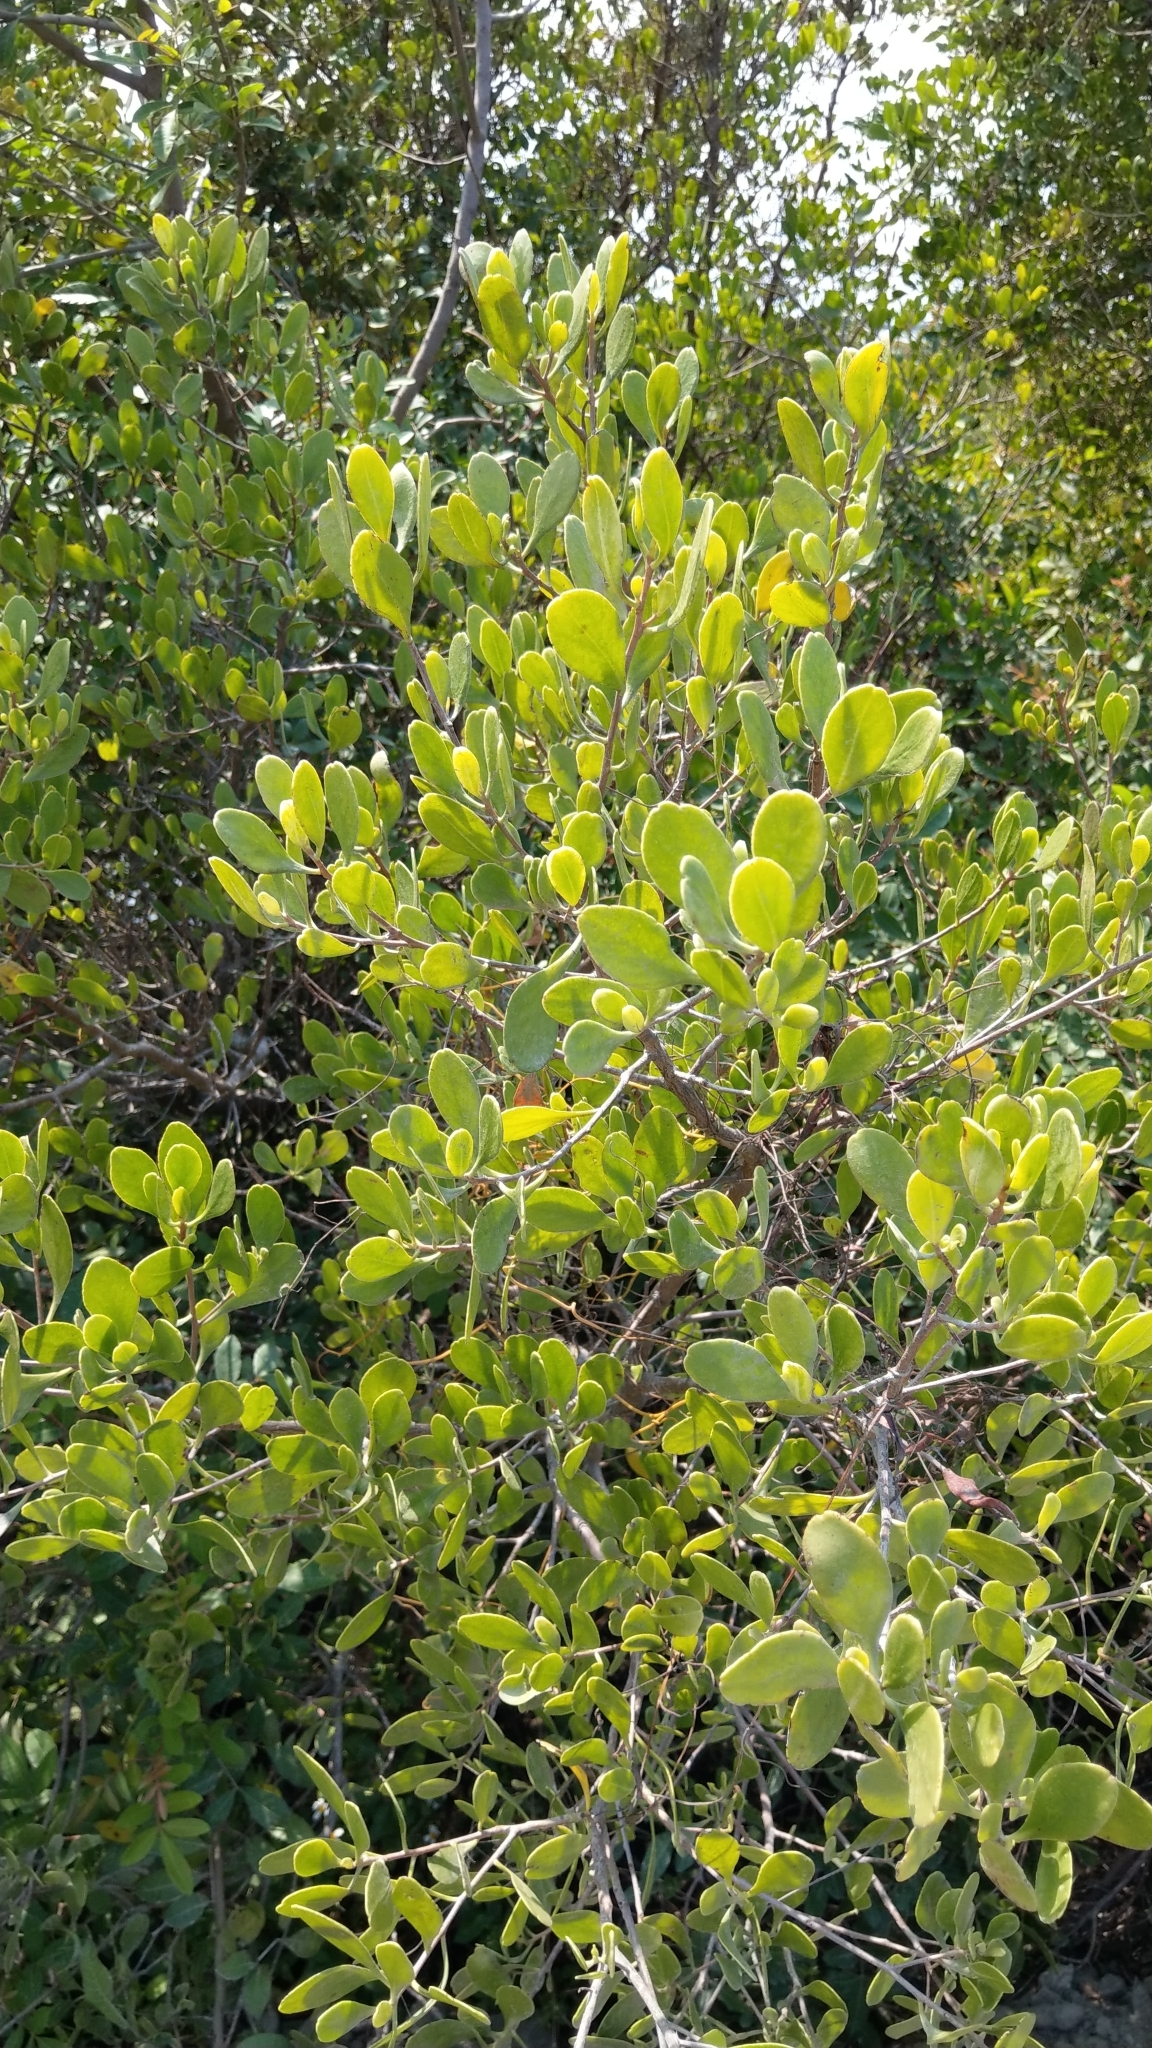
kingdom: Plantae
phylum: Tracheophyta
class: Magnoliopsida
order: Myrtales
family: Combretaceae
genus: Lumnitzera
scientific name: Lumnitzera racemosa
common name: White-flowered black mangrove
